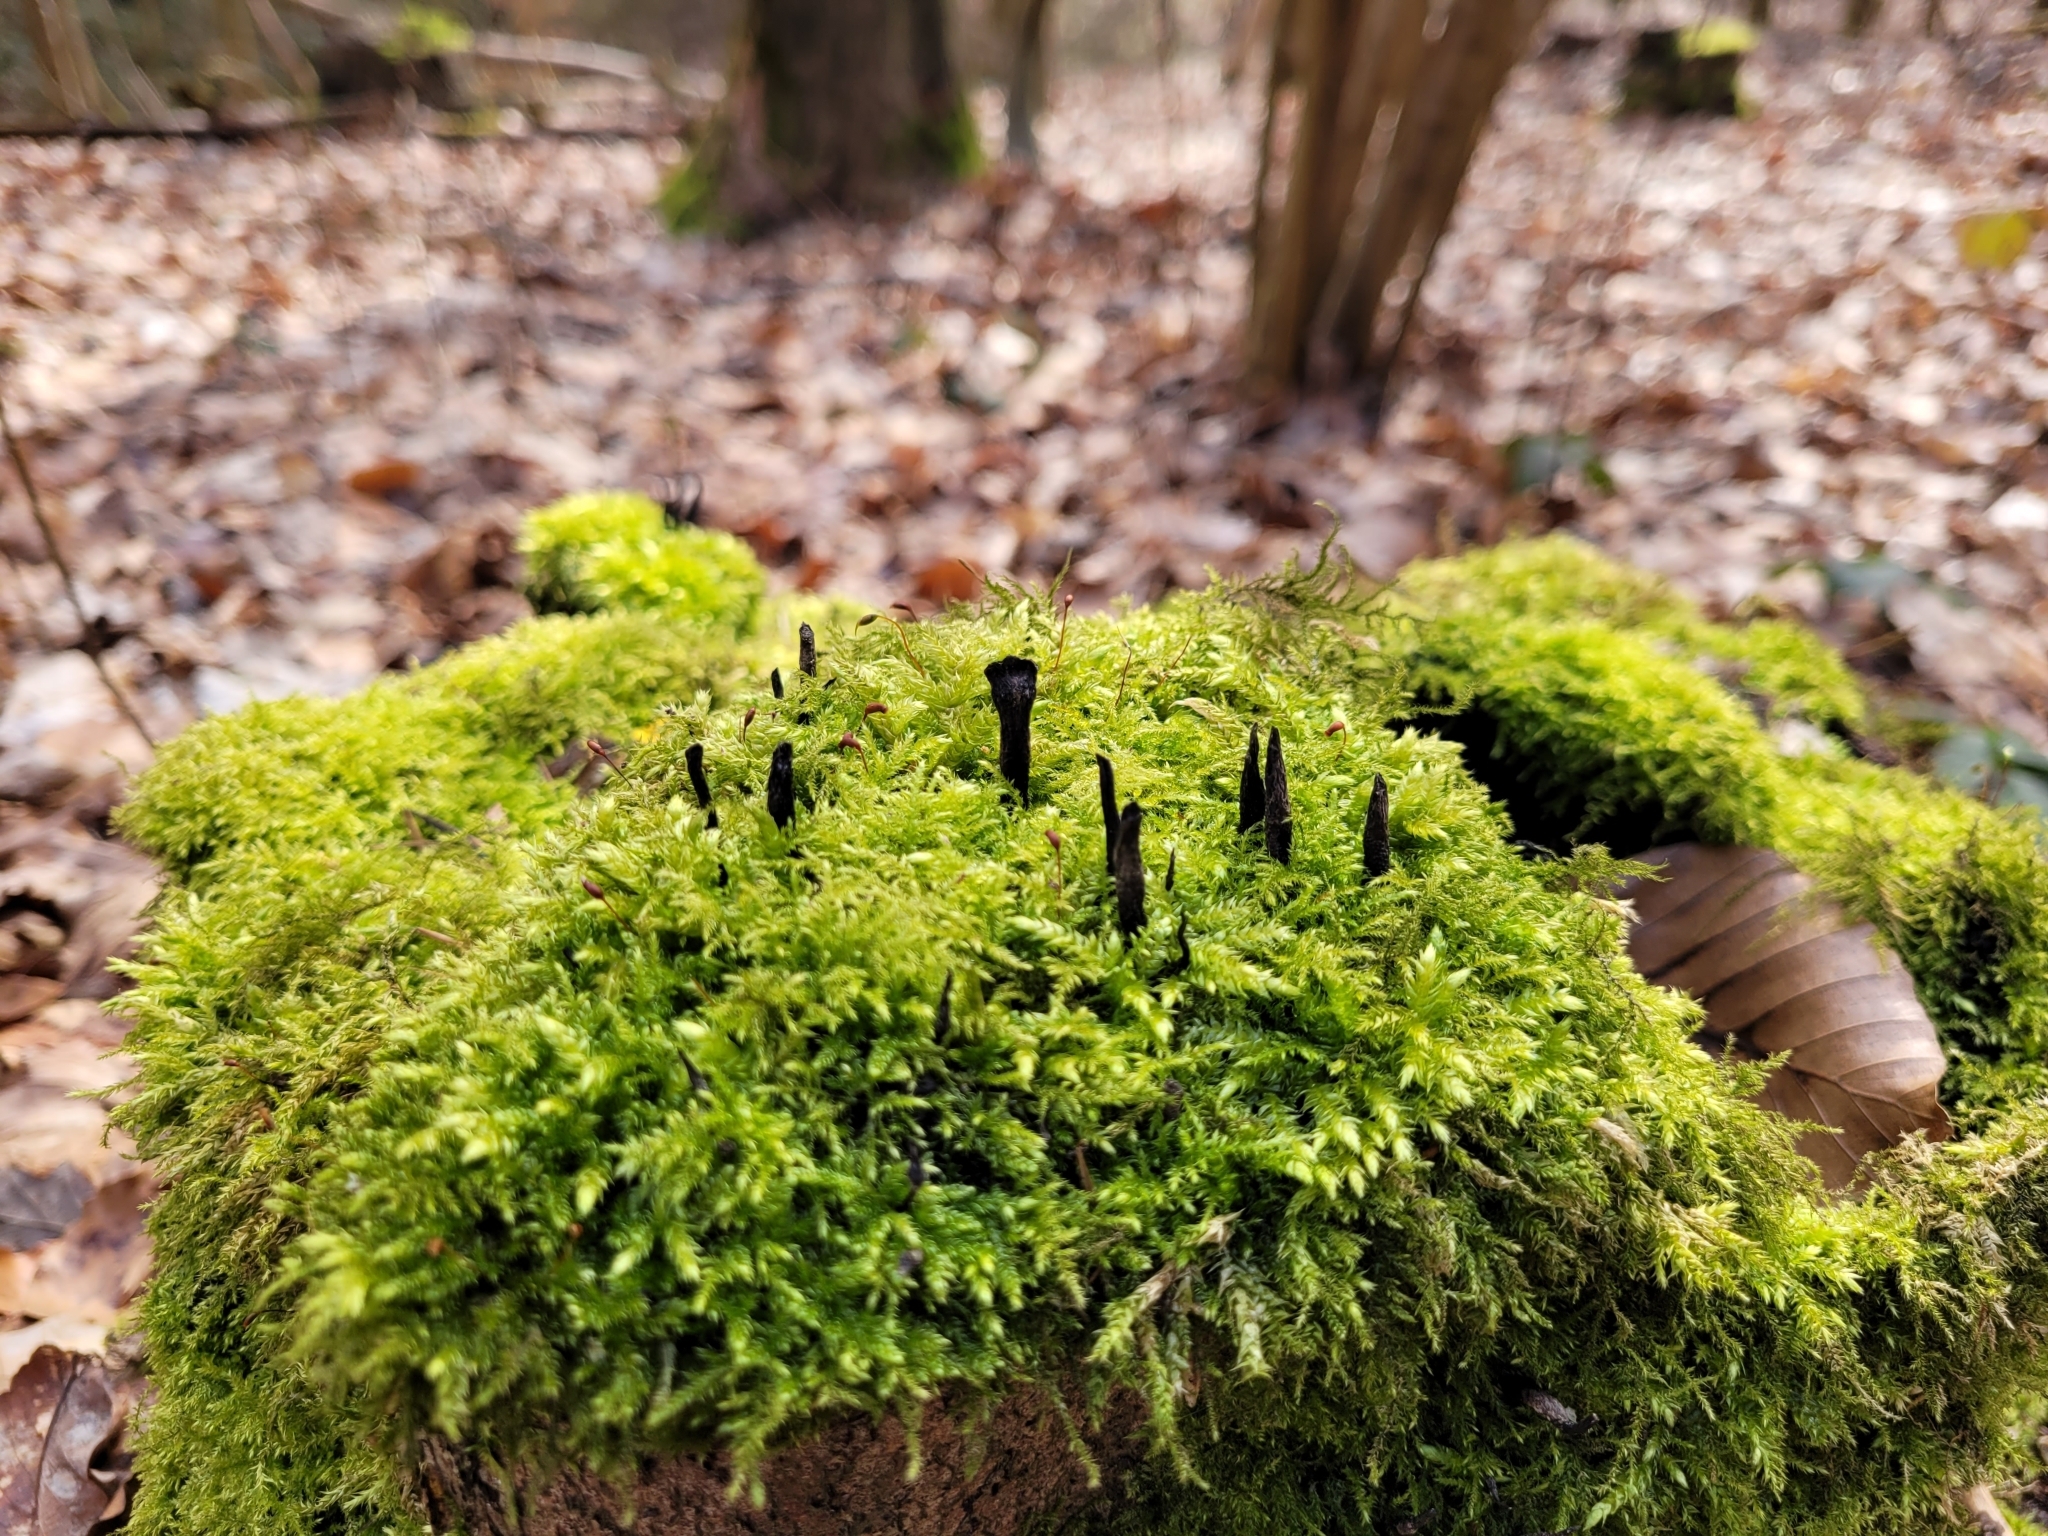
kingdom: Fungi
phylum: Ascomycota
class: Sordariomycetes
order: Xylariales
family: Xylariaceae
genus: Xylaria
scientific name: Xylaria hypoxylon
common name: Candle-snuff fungus
